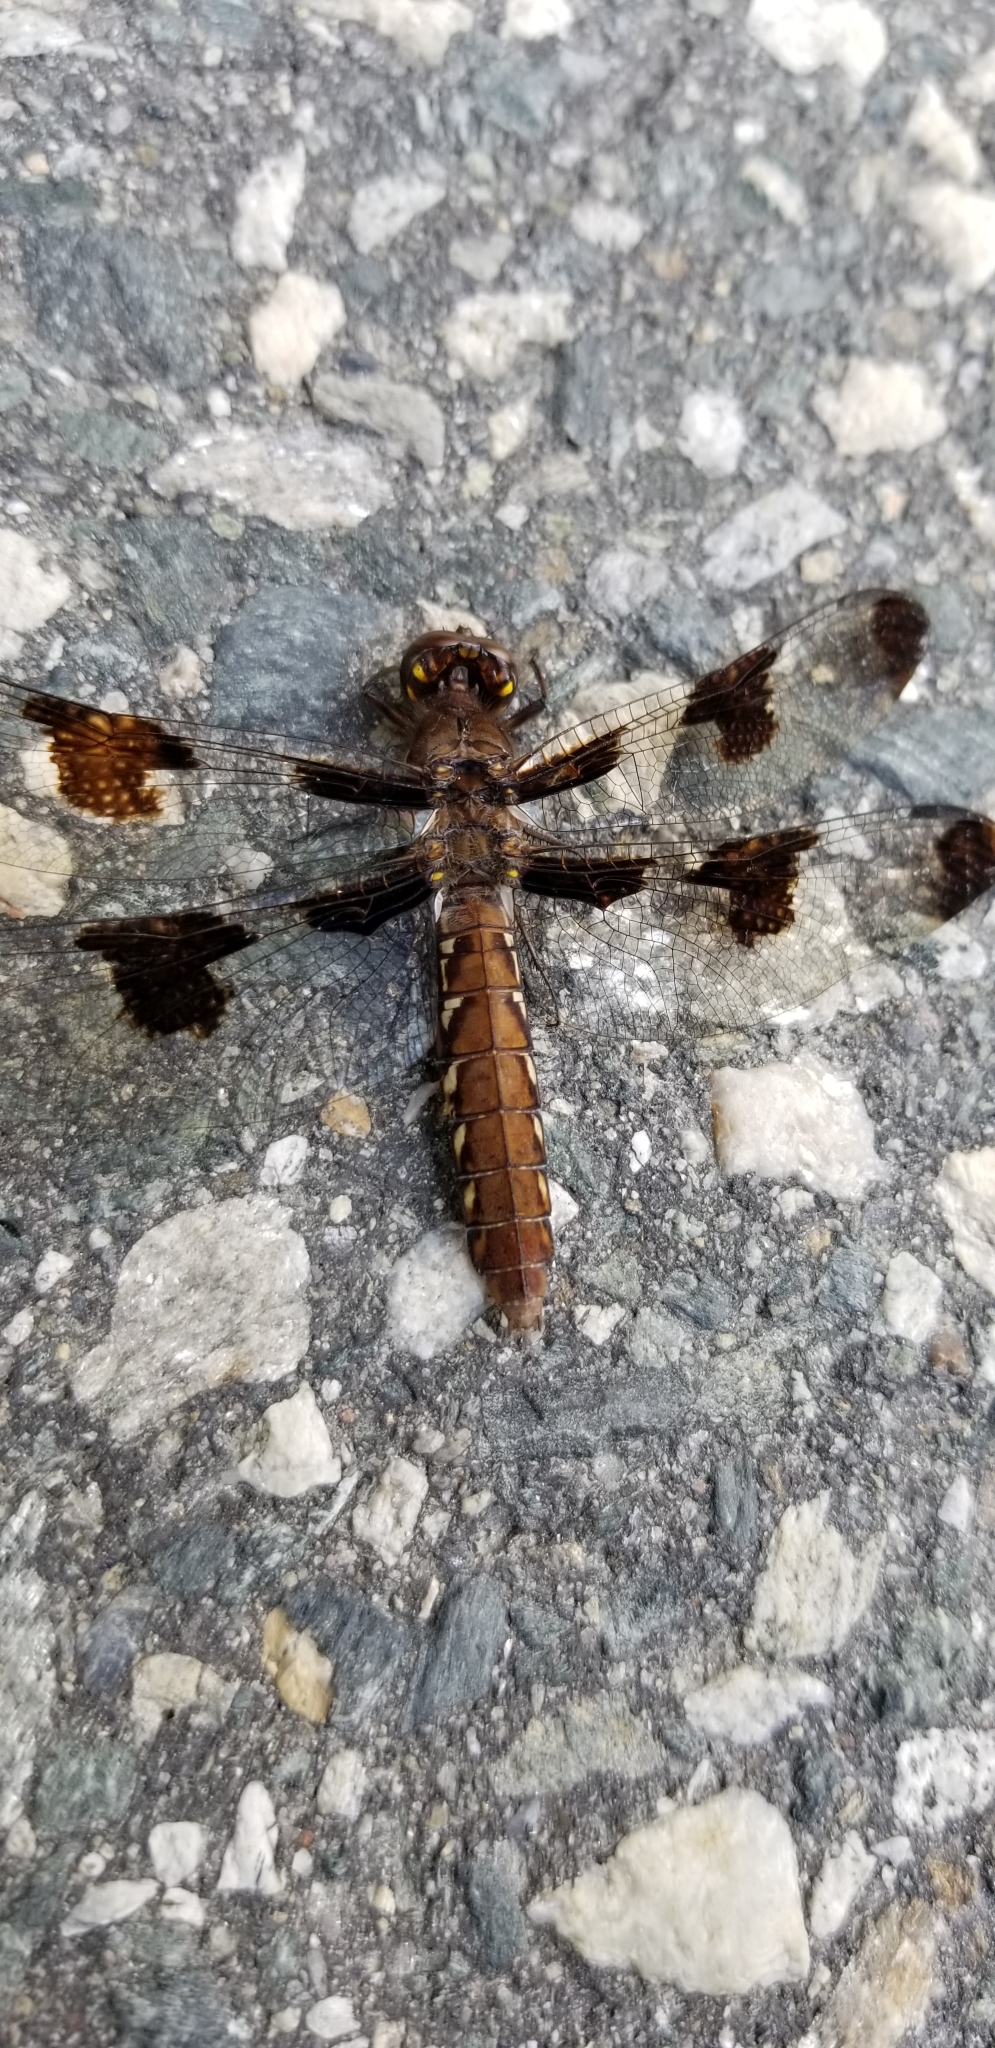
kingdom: Animalia
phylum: Arthropoda
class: Insecta
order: Odonata
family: Libellulidae
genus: Plathemis
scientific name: Plathemis lydia
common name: Common whitetail
